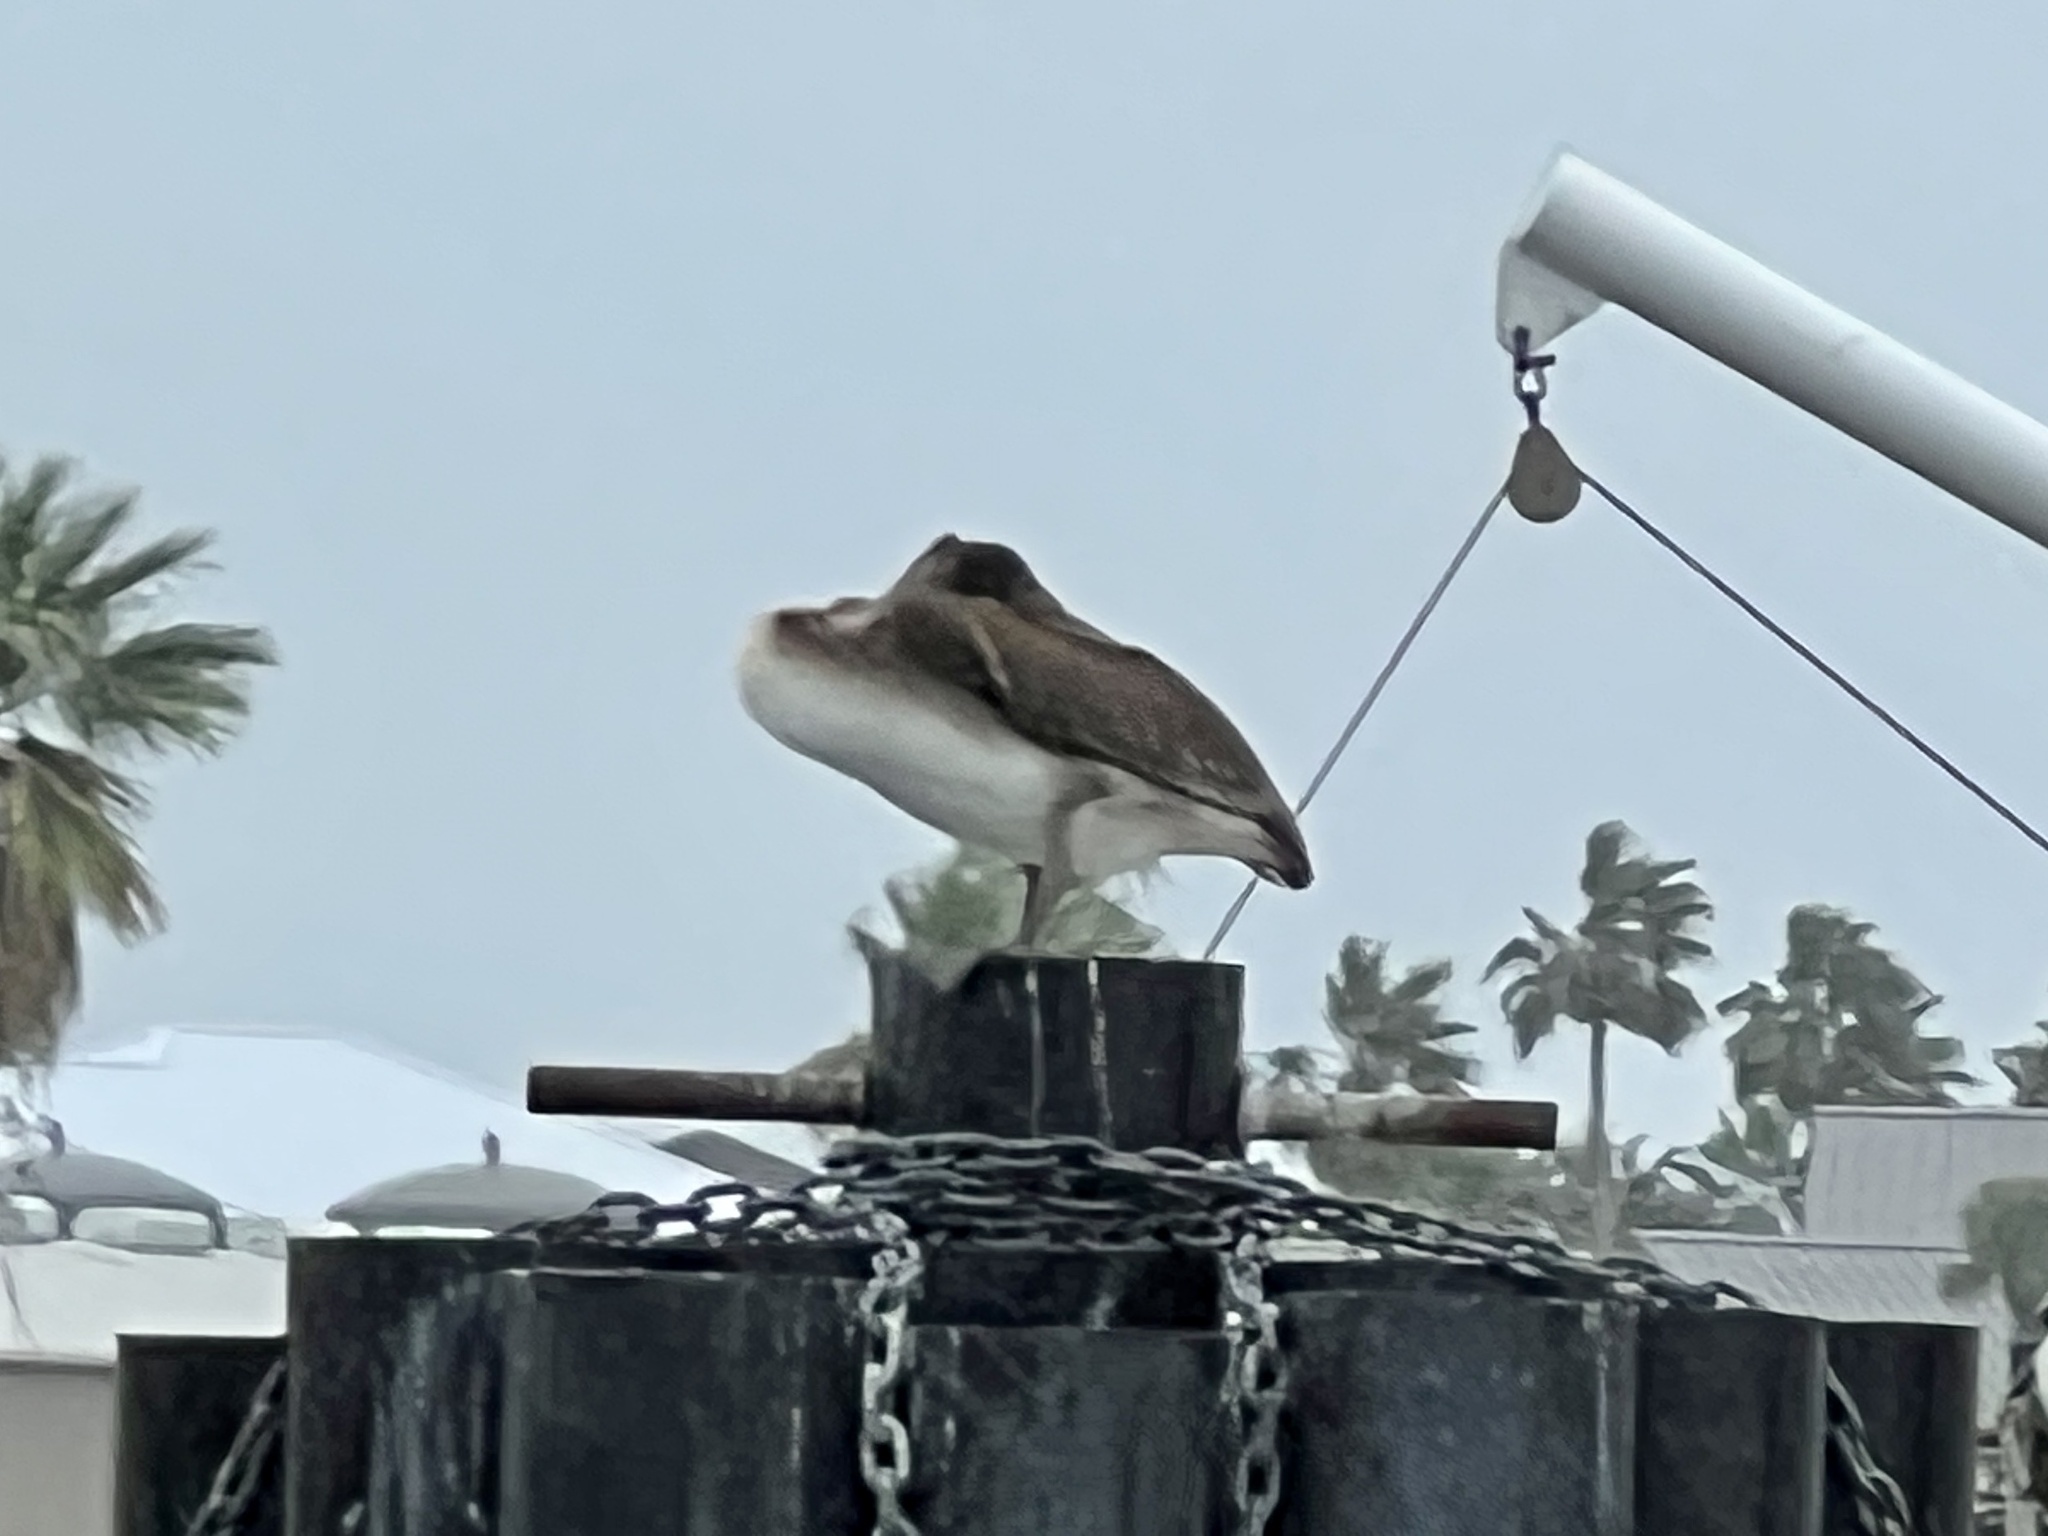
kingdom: Animalia
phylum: Chordata
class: Aves
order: Pelecaniformes
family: Pelecanidae
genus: Pelecanus
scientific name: Pelecanus occidentalis
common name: Brown pelican
